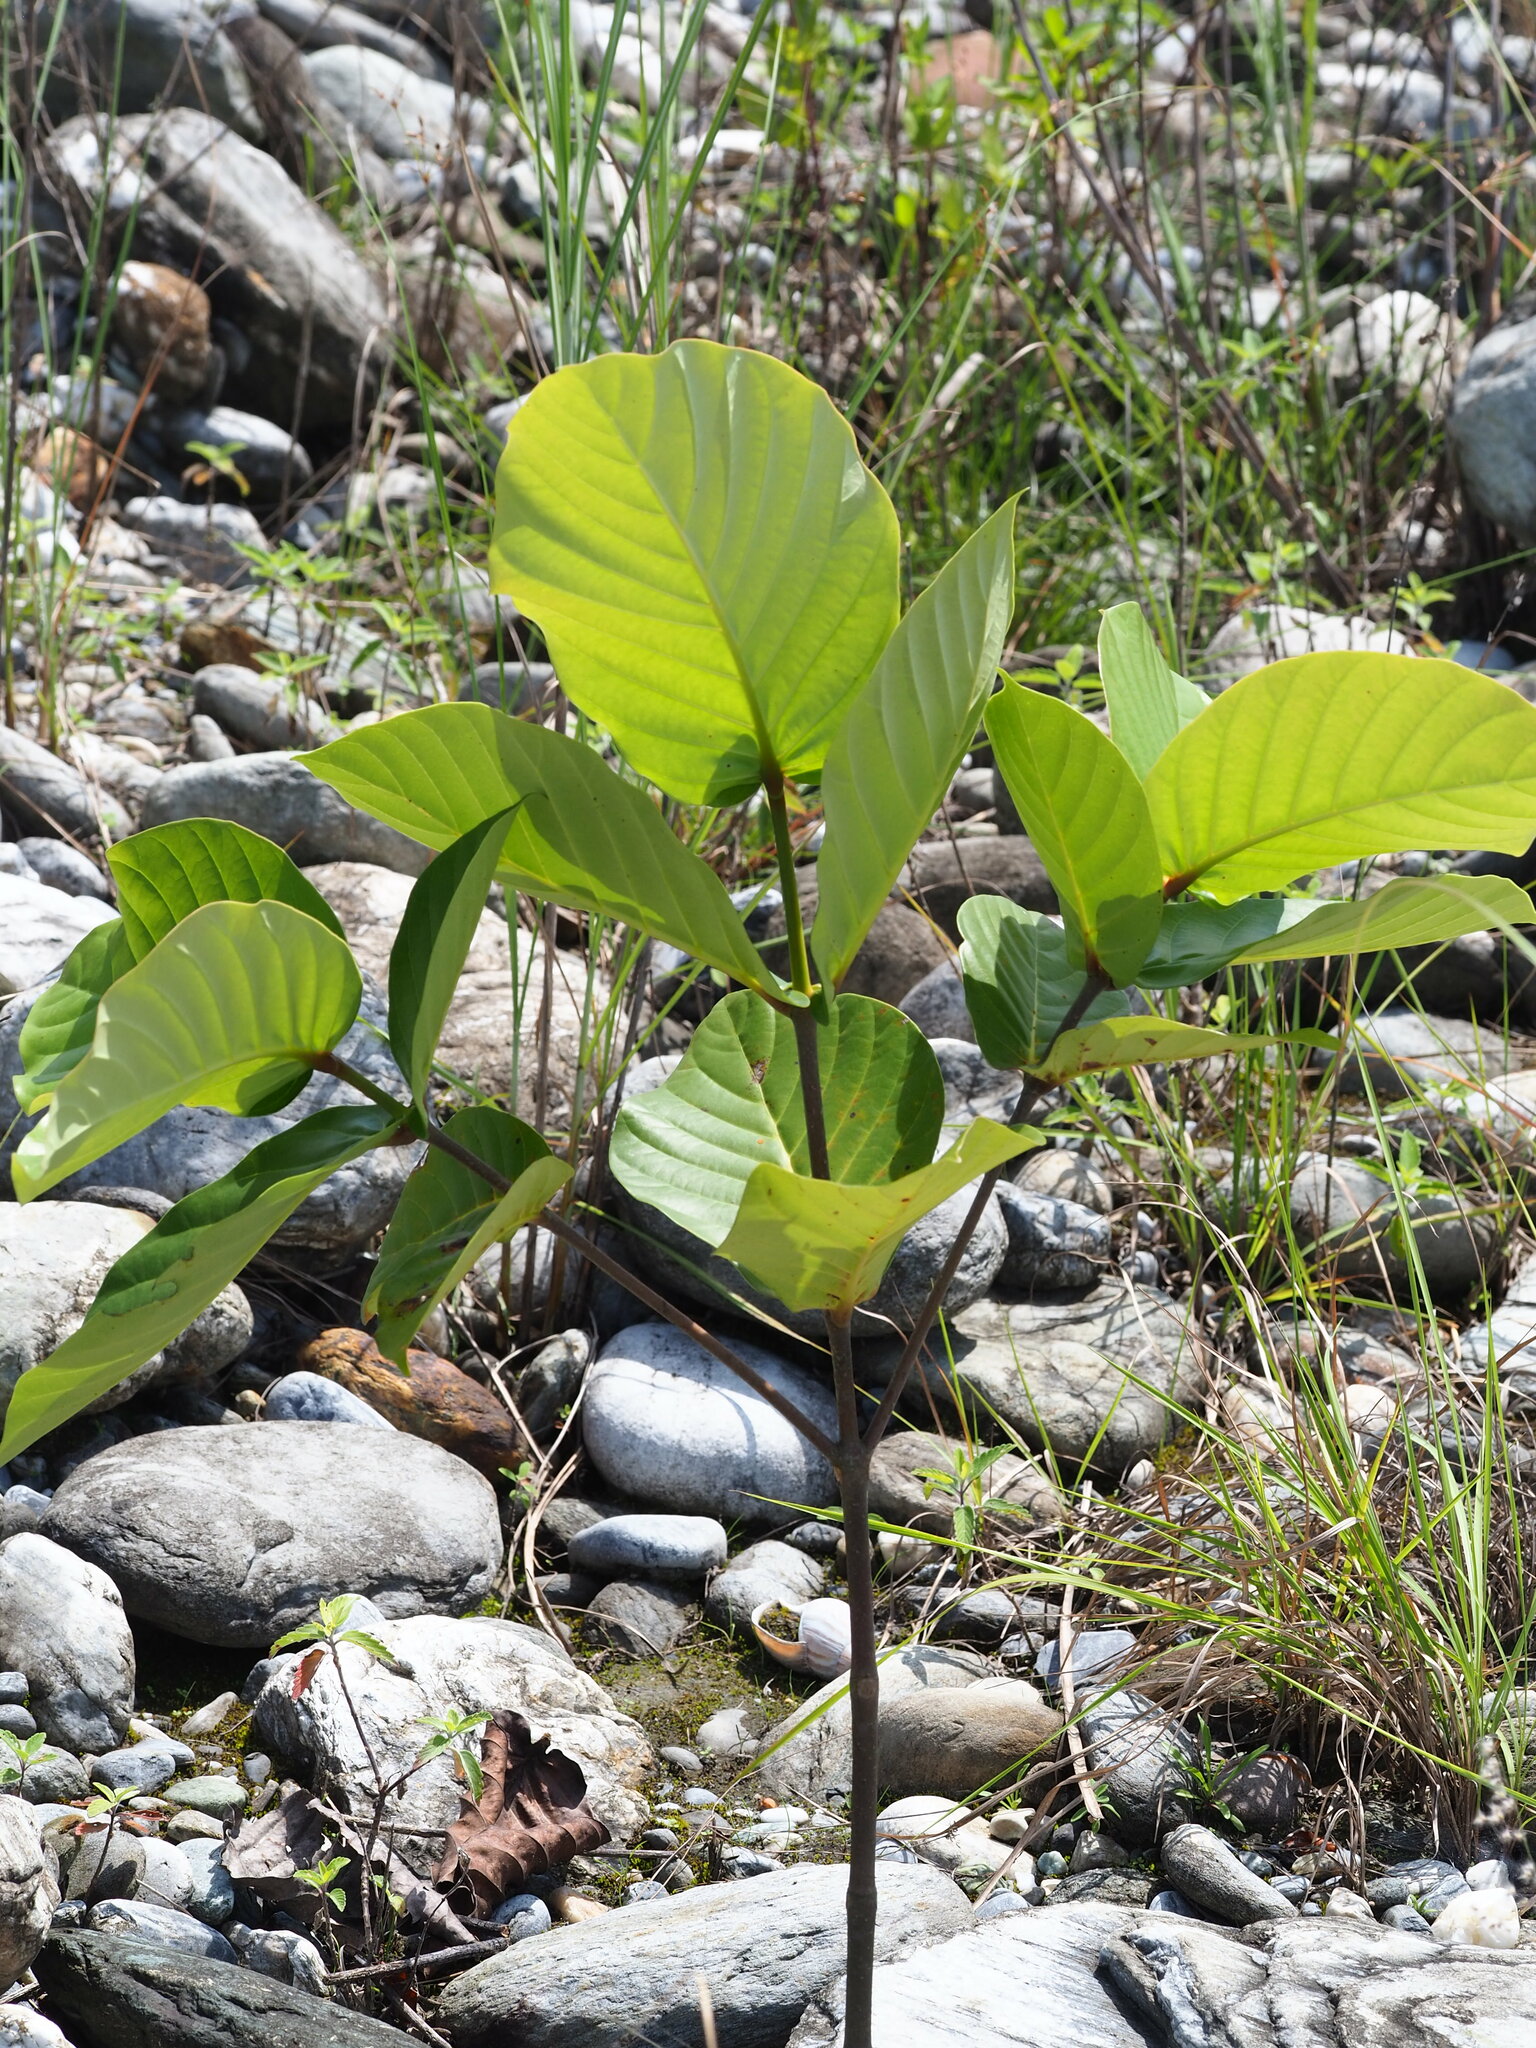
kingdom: Plantae
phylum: Tracheophyta
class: Magnoliopsida
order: Gentianales
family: Rubiaceae
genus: Neonauclea
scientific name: Neonauclea reticulata
